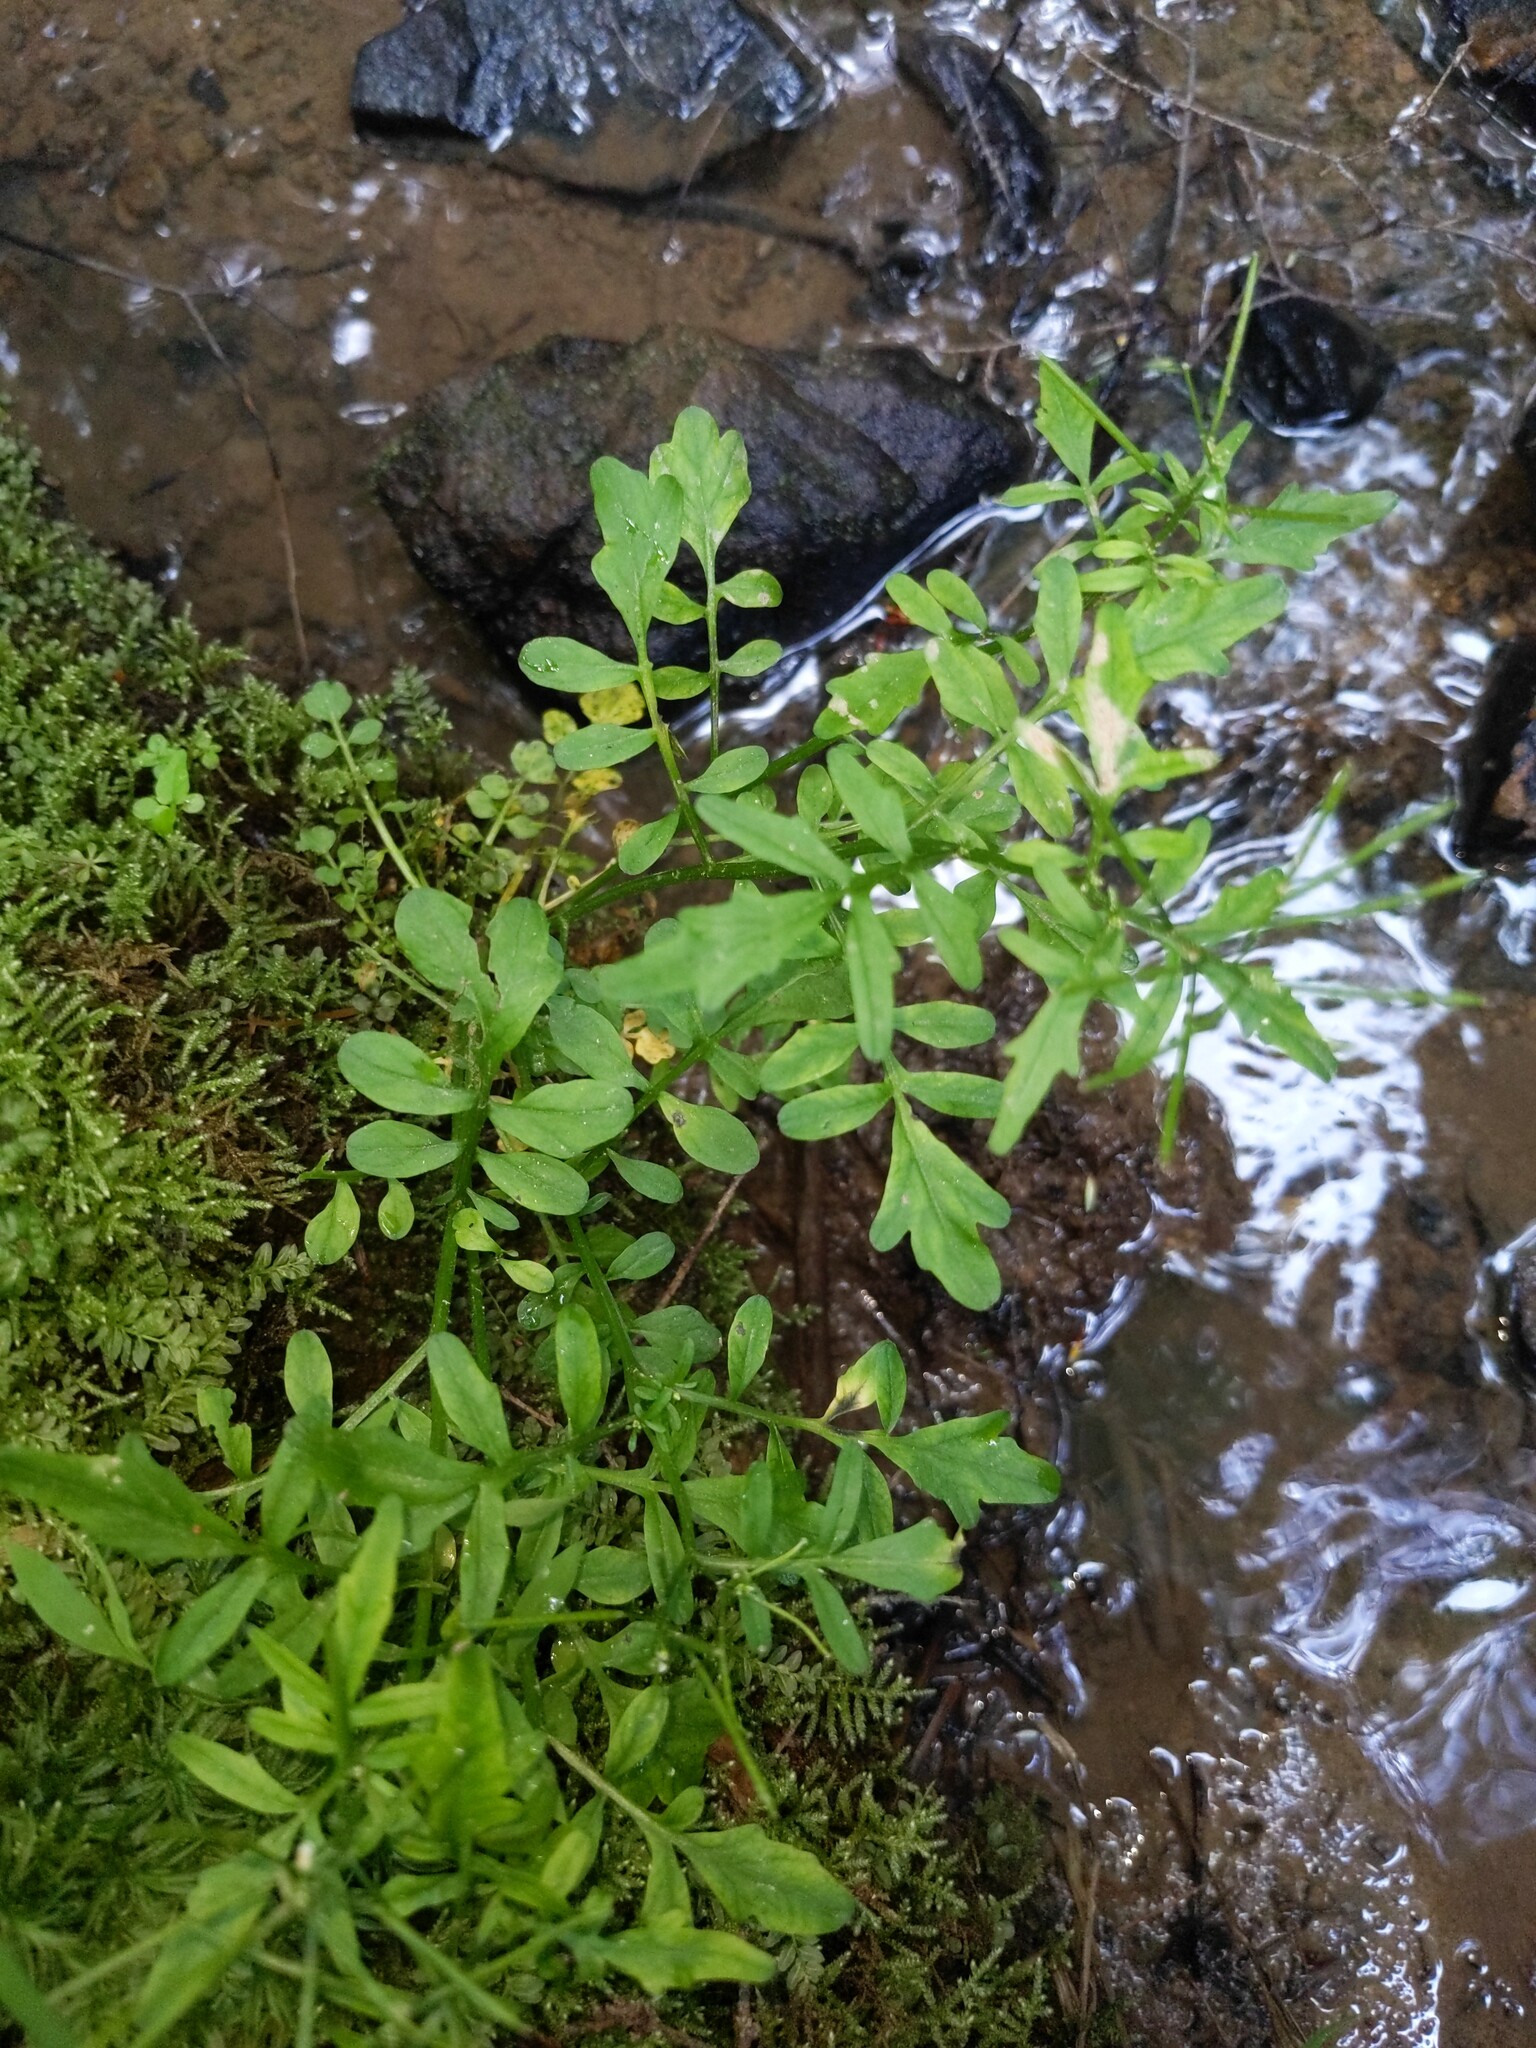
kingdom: Plantae
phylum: Tracheophyta
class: Magnoliopsida
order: Brassicales
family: Brassicaceae
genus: Cardamine
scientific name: Cardamine pensylvanica
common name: Pennsylvania bittercress
